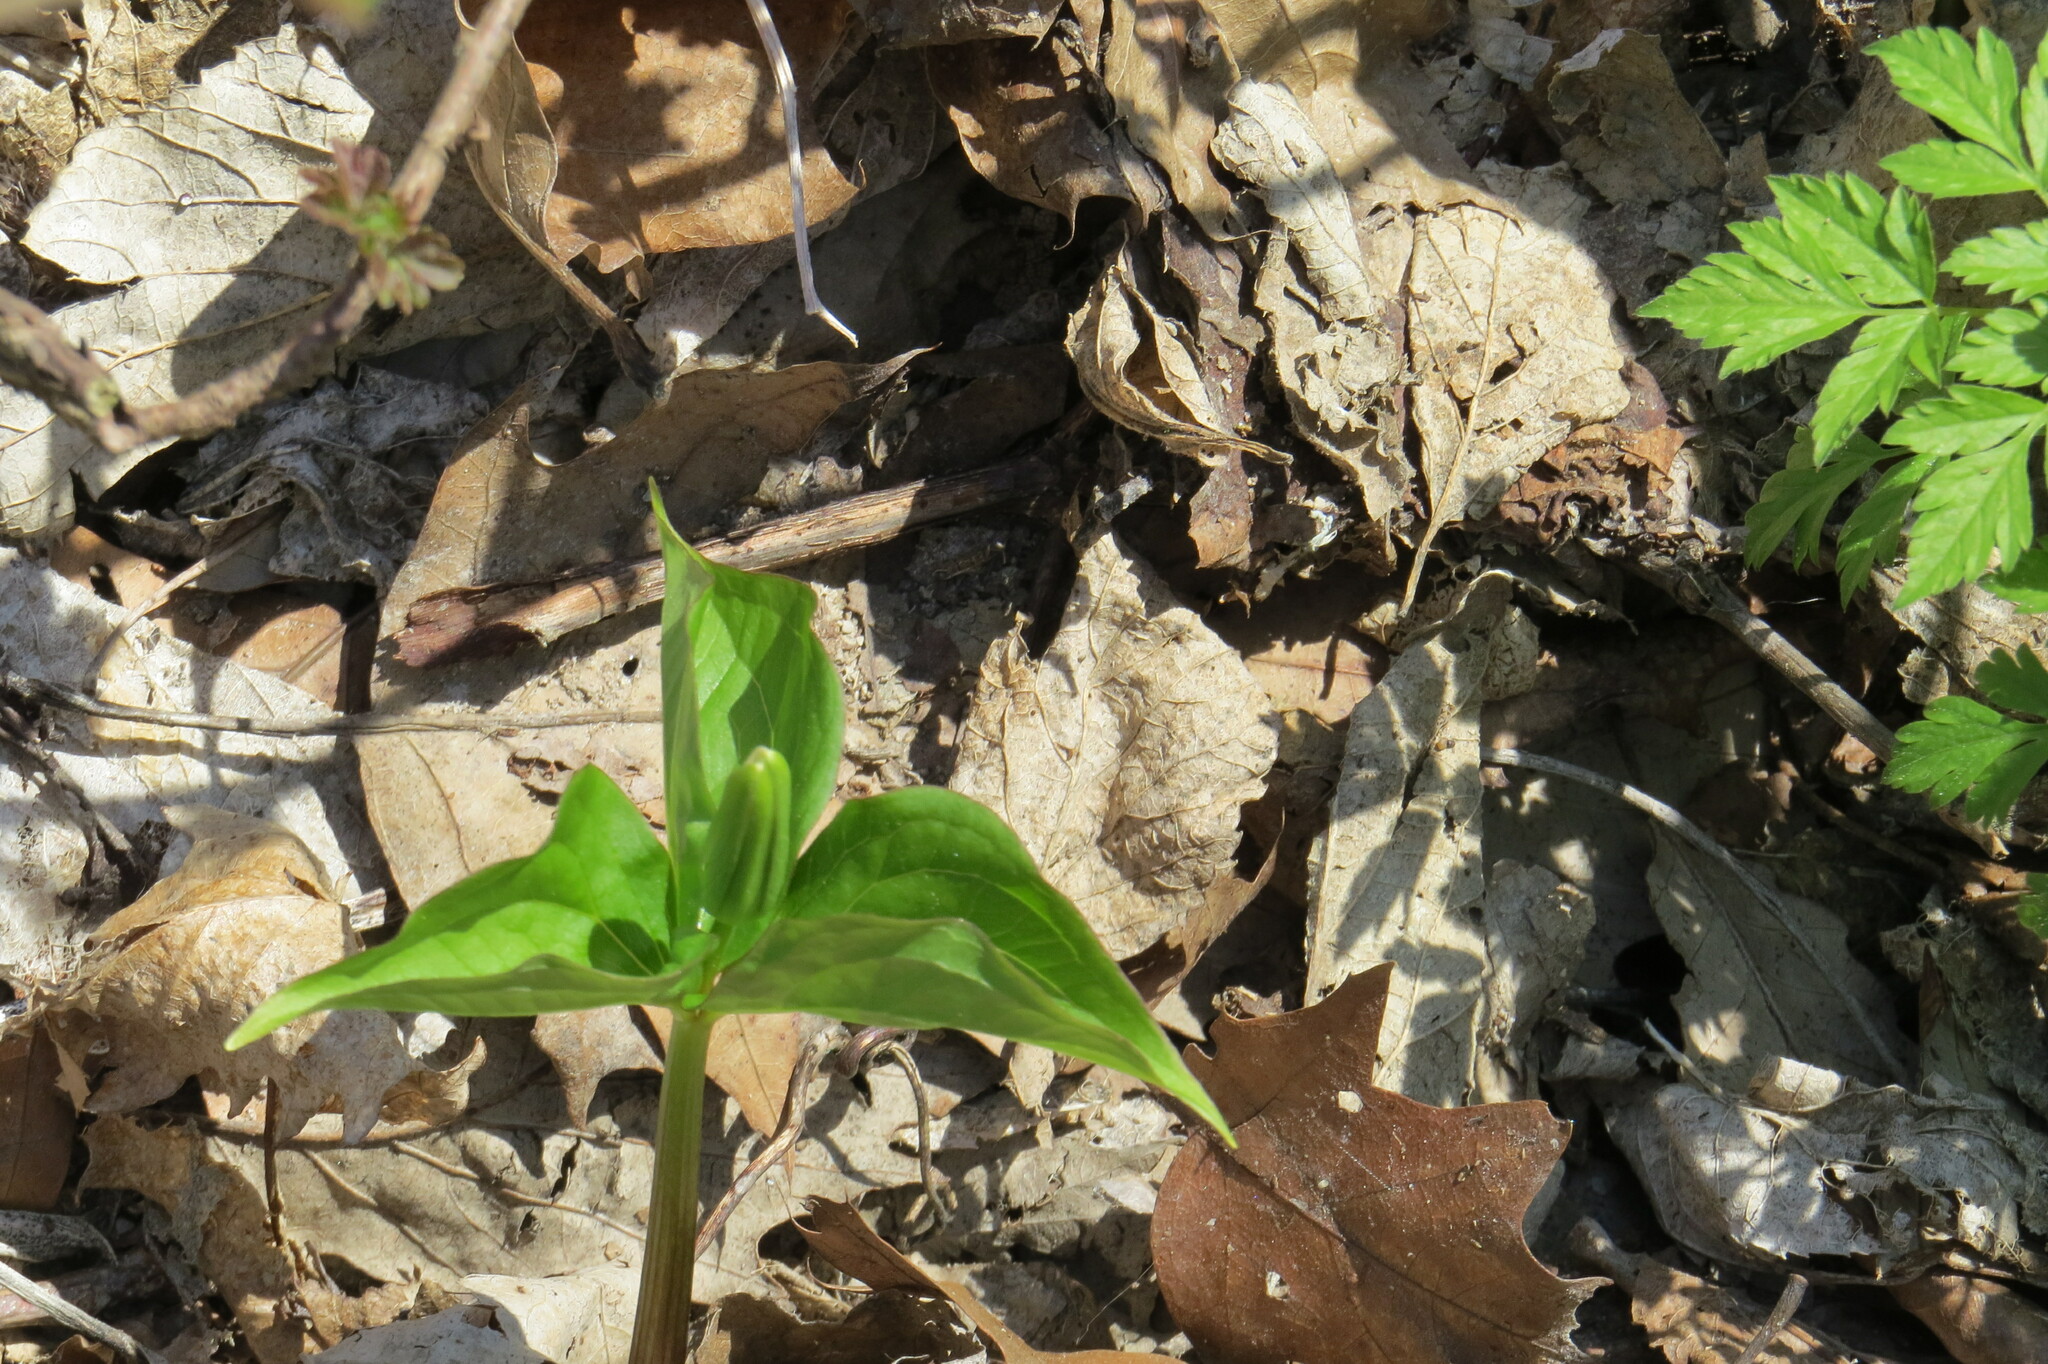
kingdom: Plantae
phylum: Tracheophyta
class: Liliopsida
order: Liliales
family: Melanthiaceae
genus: Trillium
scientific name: Trillium grandiflorum
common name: Great white trillium
